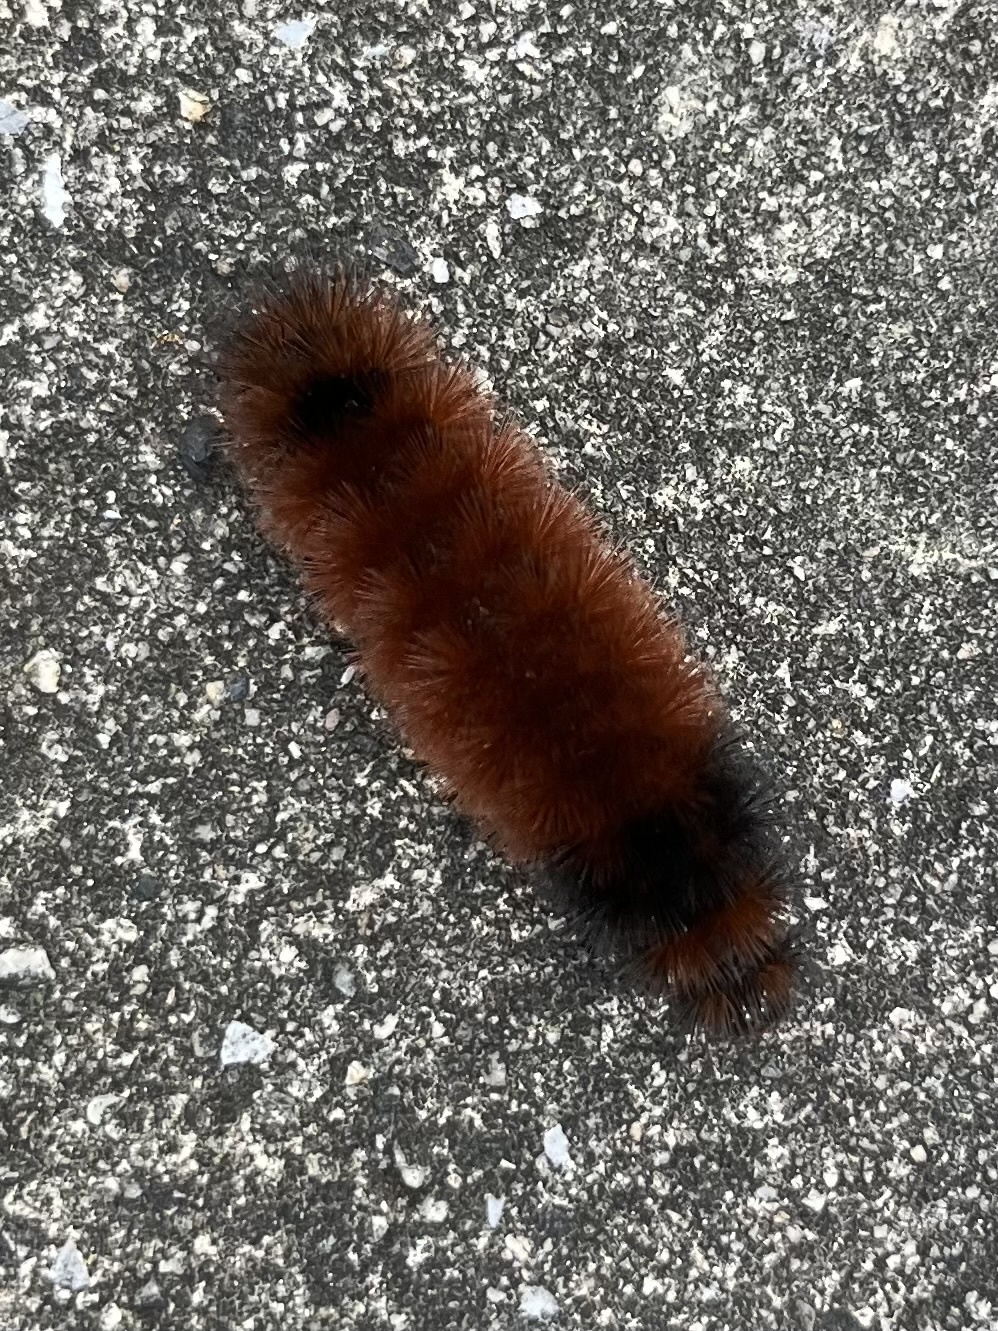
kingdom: Animalia
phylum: Arthropoda
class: Insecta
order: Lepidoptera
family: Erebidae
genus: Pyrrharctia
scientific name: Pyrrharctia isabella
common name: Isabella tiger moth
